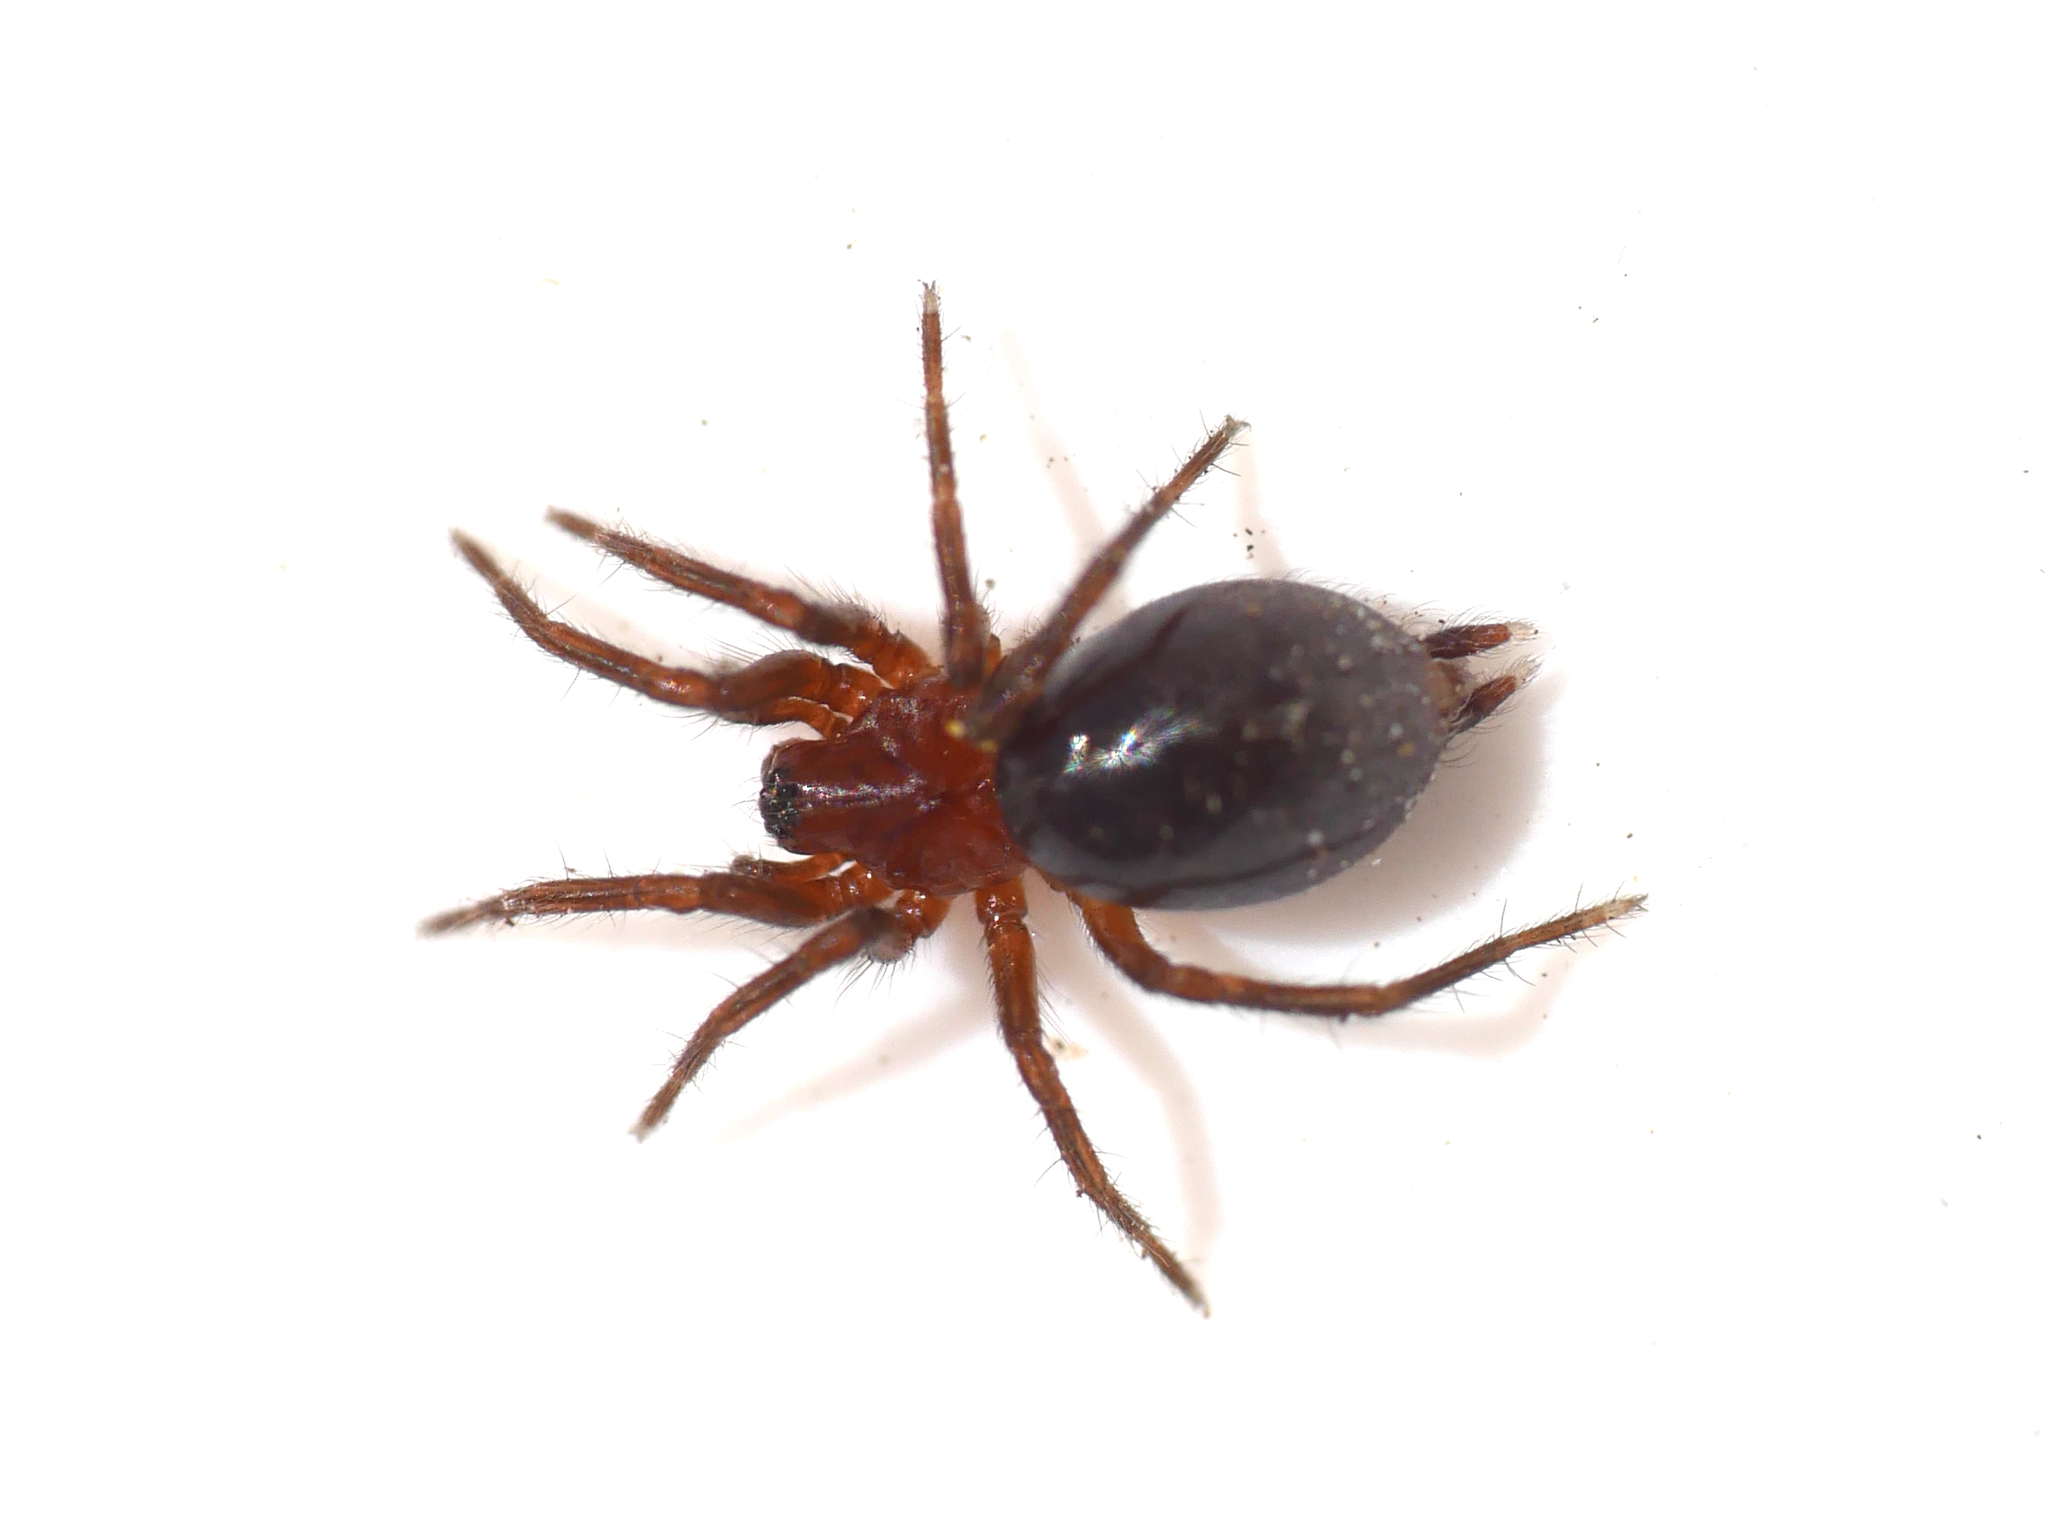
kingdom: Animalia
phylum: Arthropoda
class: Arachnida
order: Araneae
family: Agelenidae
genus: Agelena
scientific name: Agelena labyrinthica
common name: Labyrinth spider
